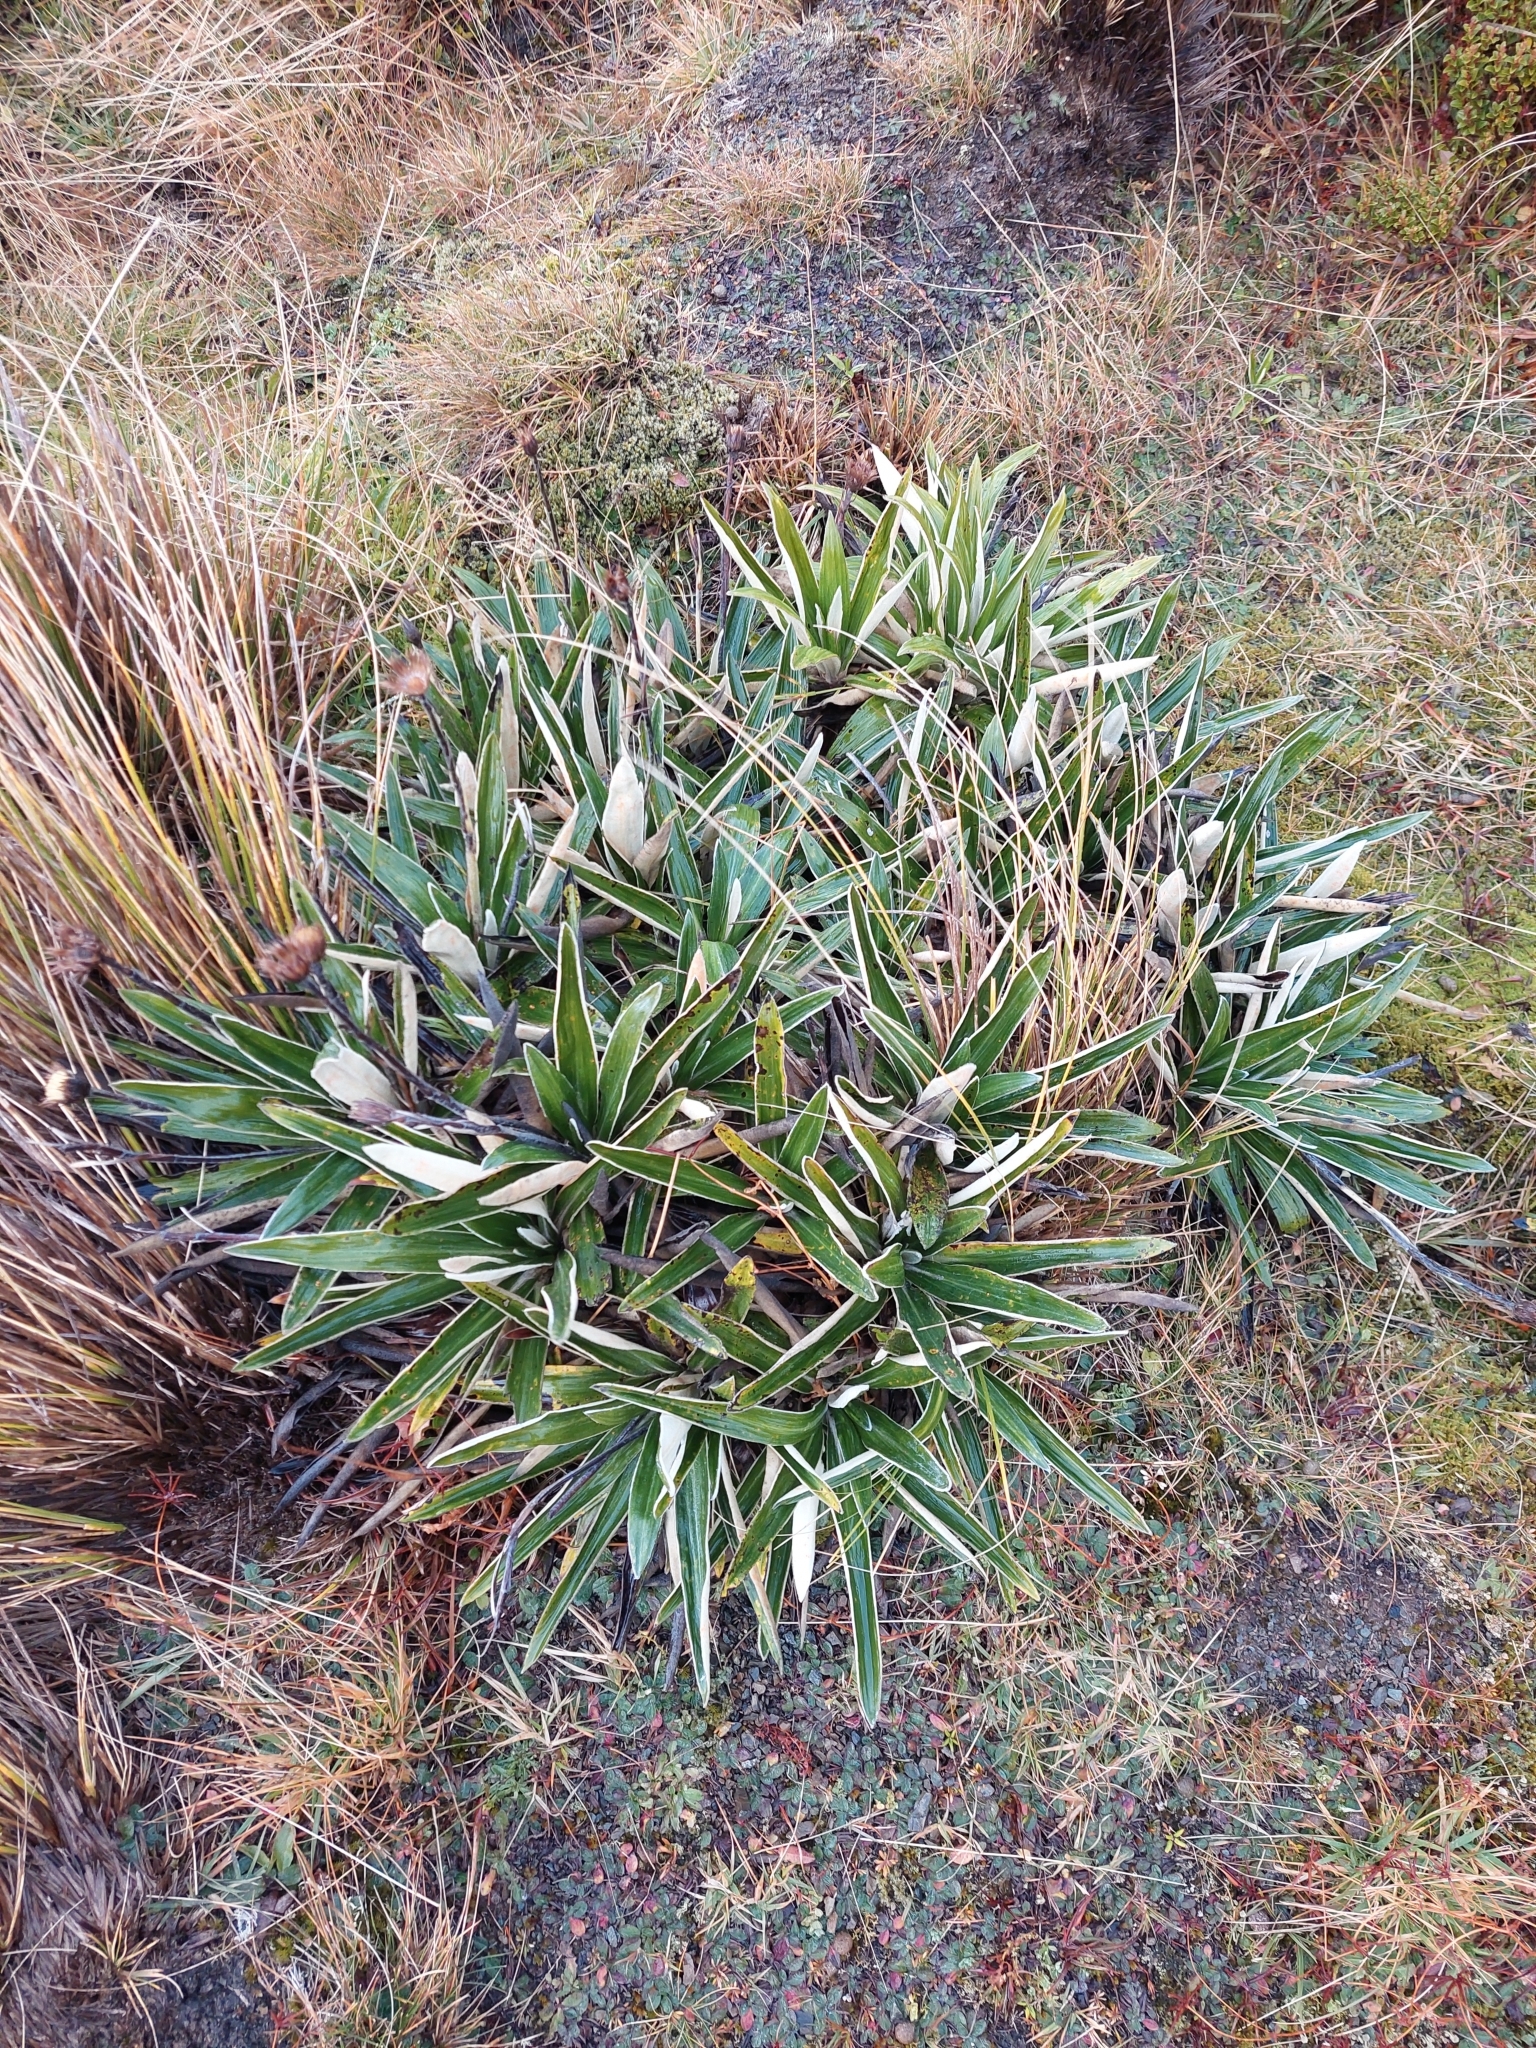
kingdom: Plantae
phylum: Tracheophyta
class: Magnoliopsida
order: Asterales
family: Asteraceae
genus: Celmisia
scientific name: Celmisia spectabilis
